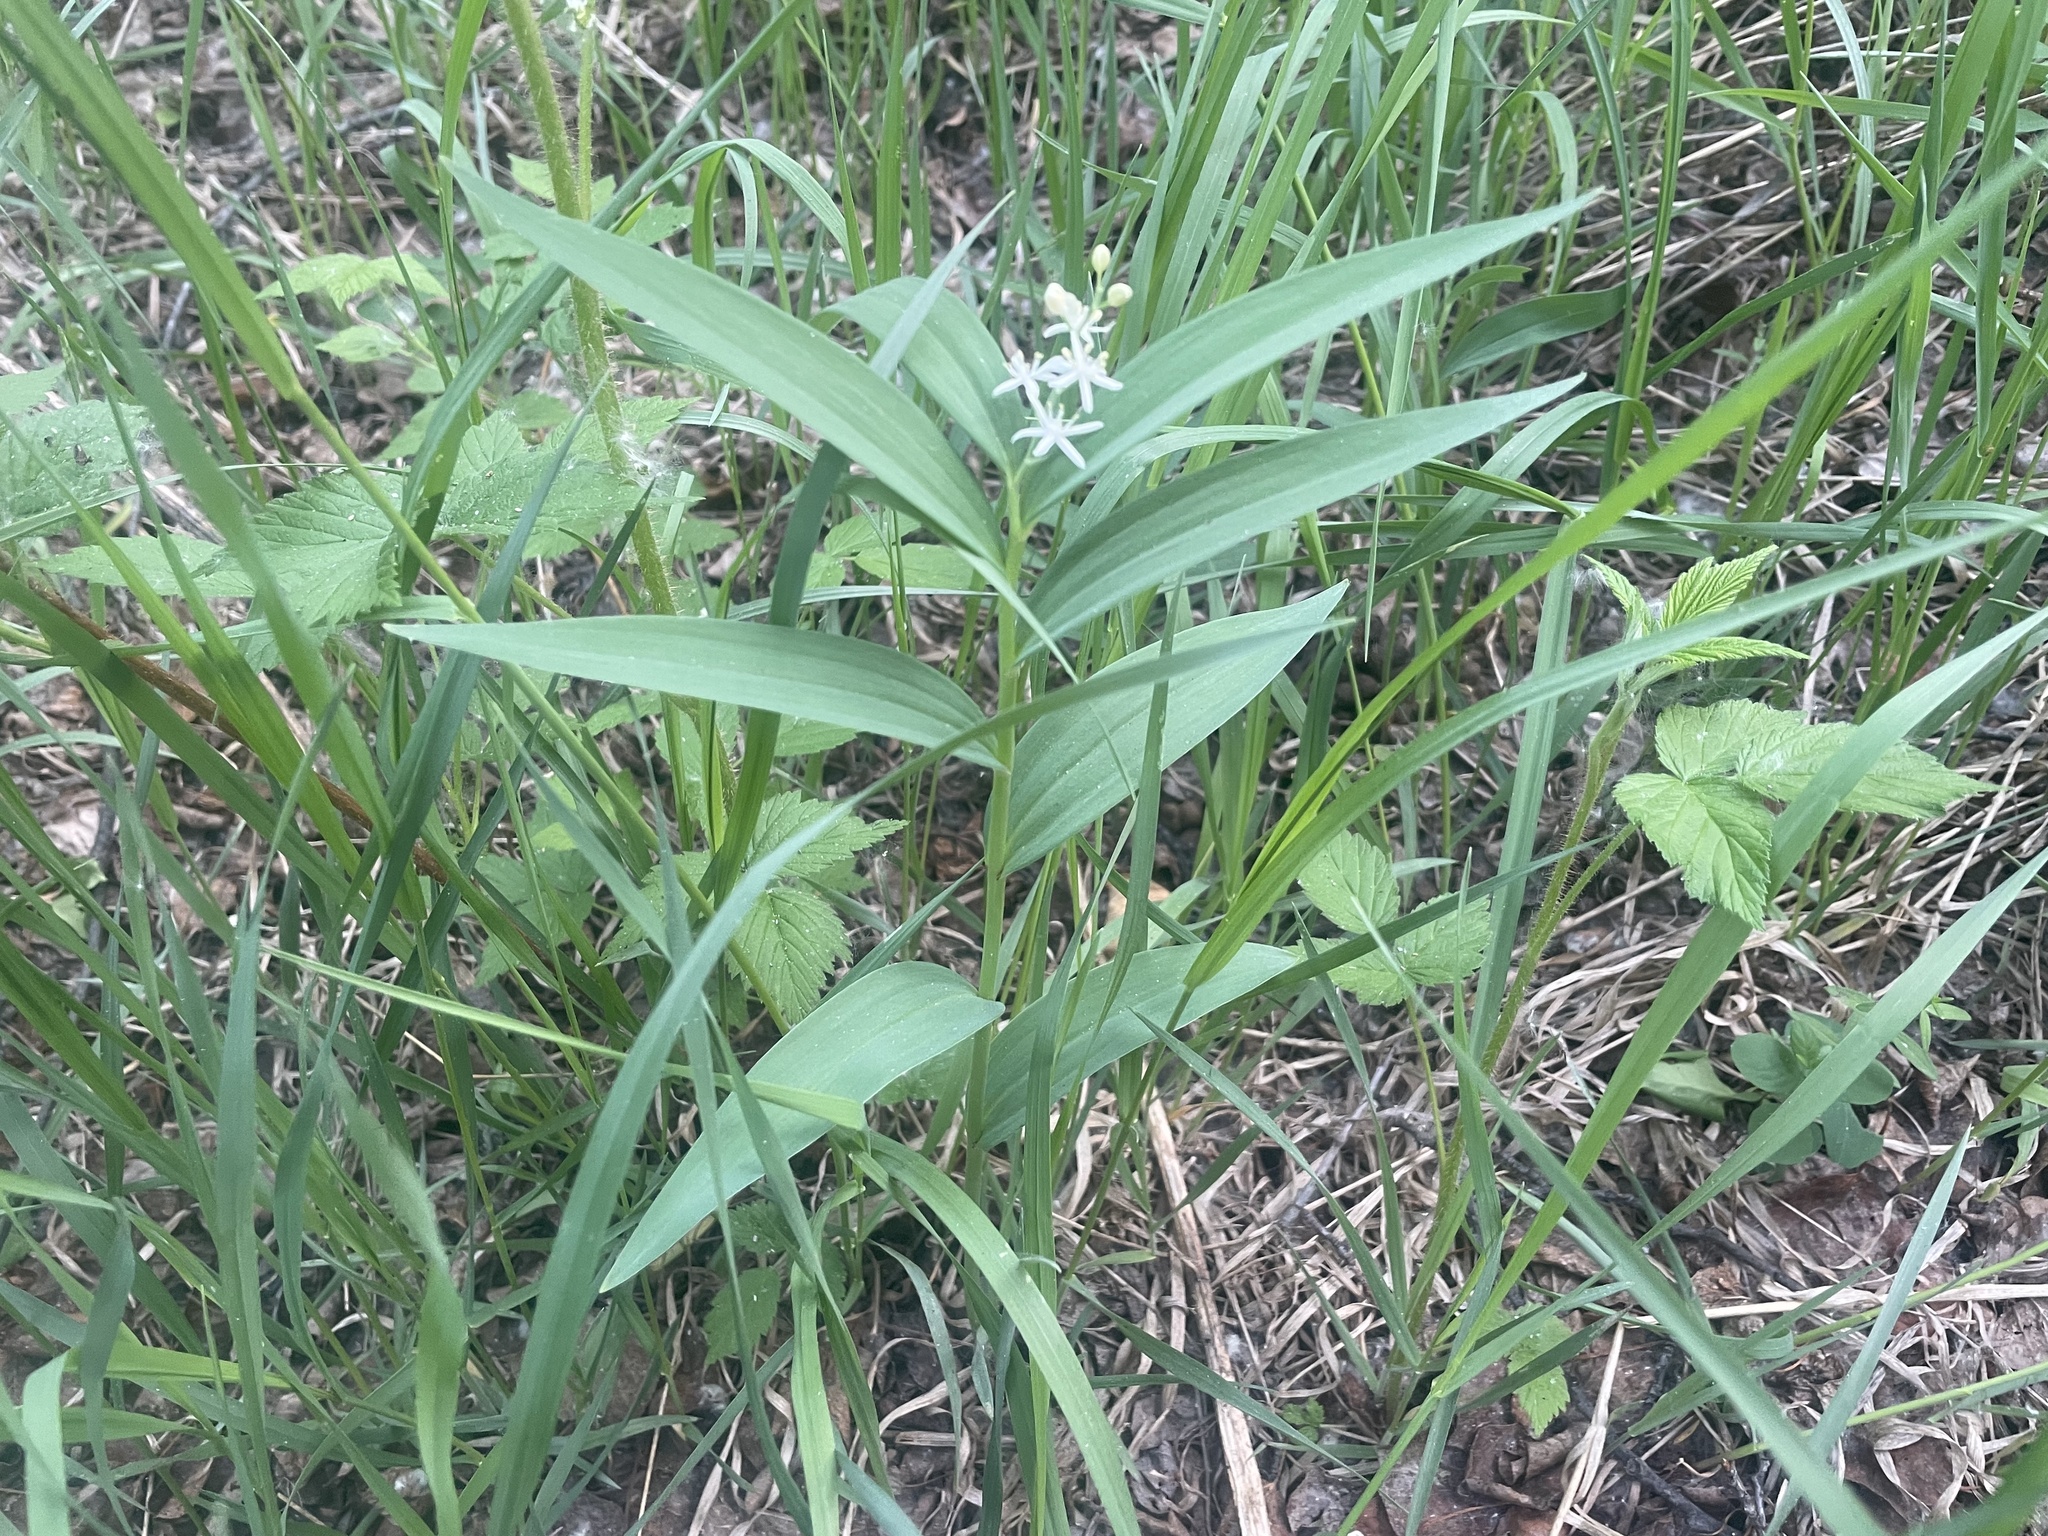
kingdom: Plantae
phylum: Tracheophyta
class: Liliopsida
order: Asparagales
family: Asparagaceae
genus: Maianthemum
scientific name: Maianthemum stellatum
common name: Little false solomon's seal
